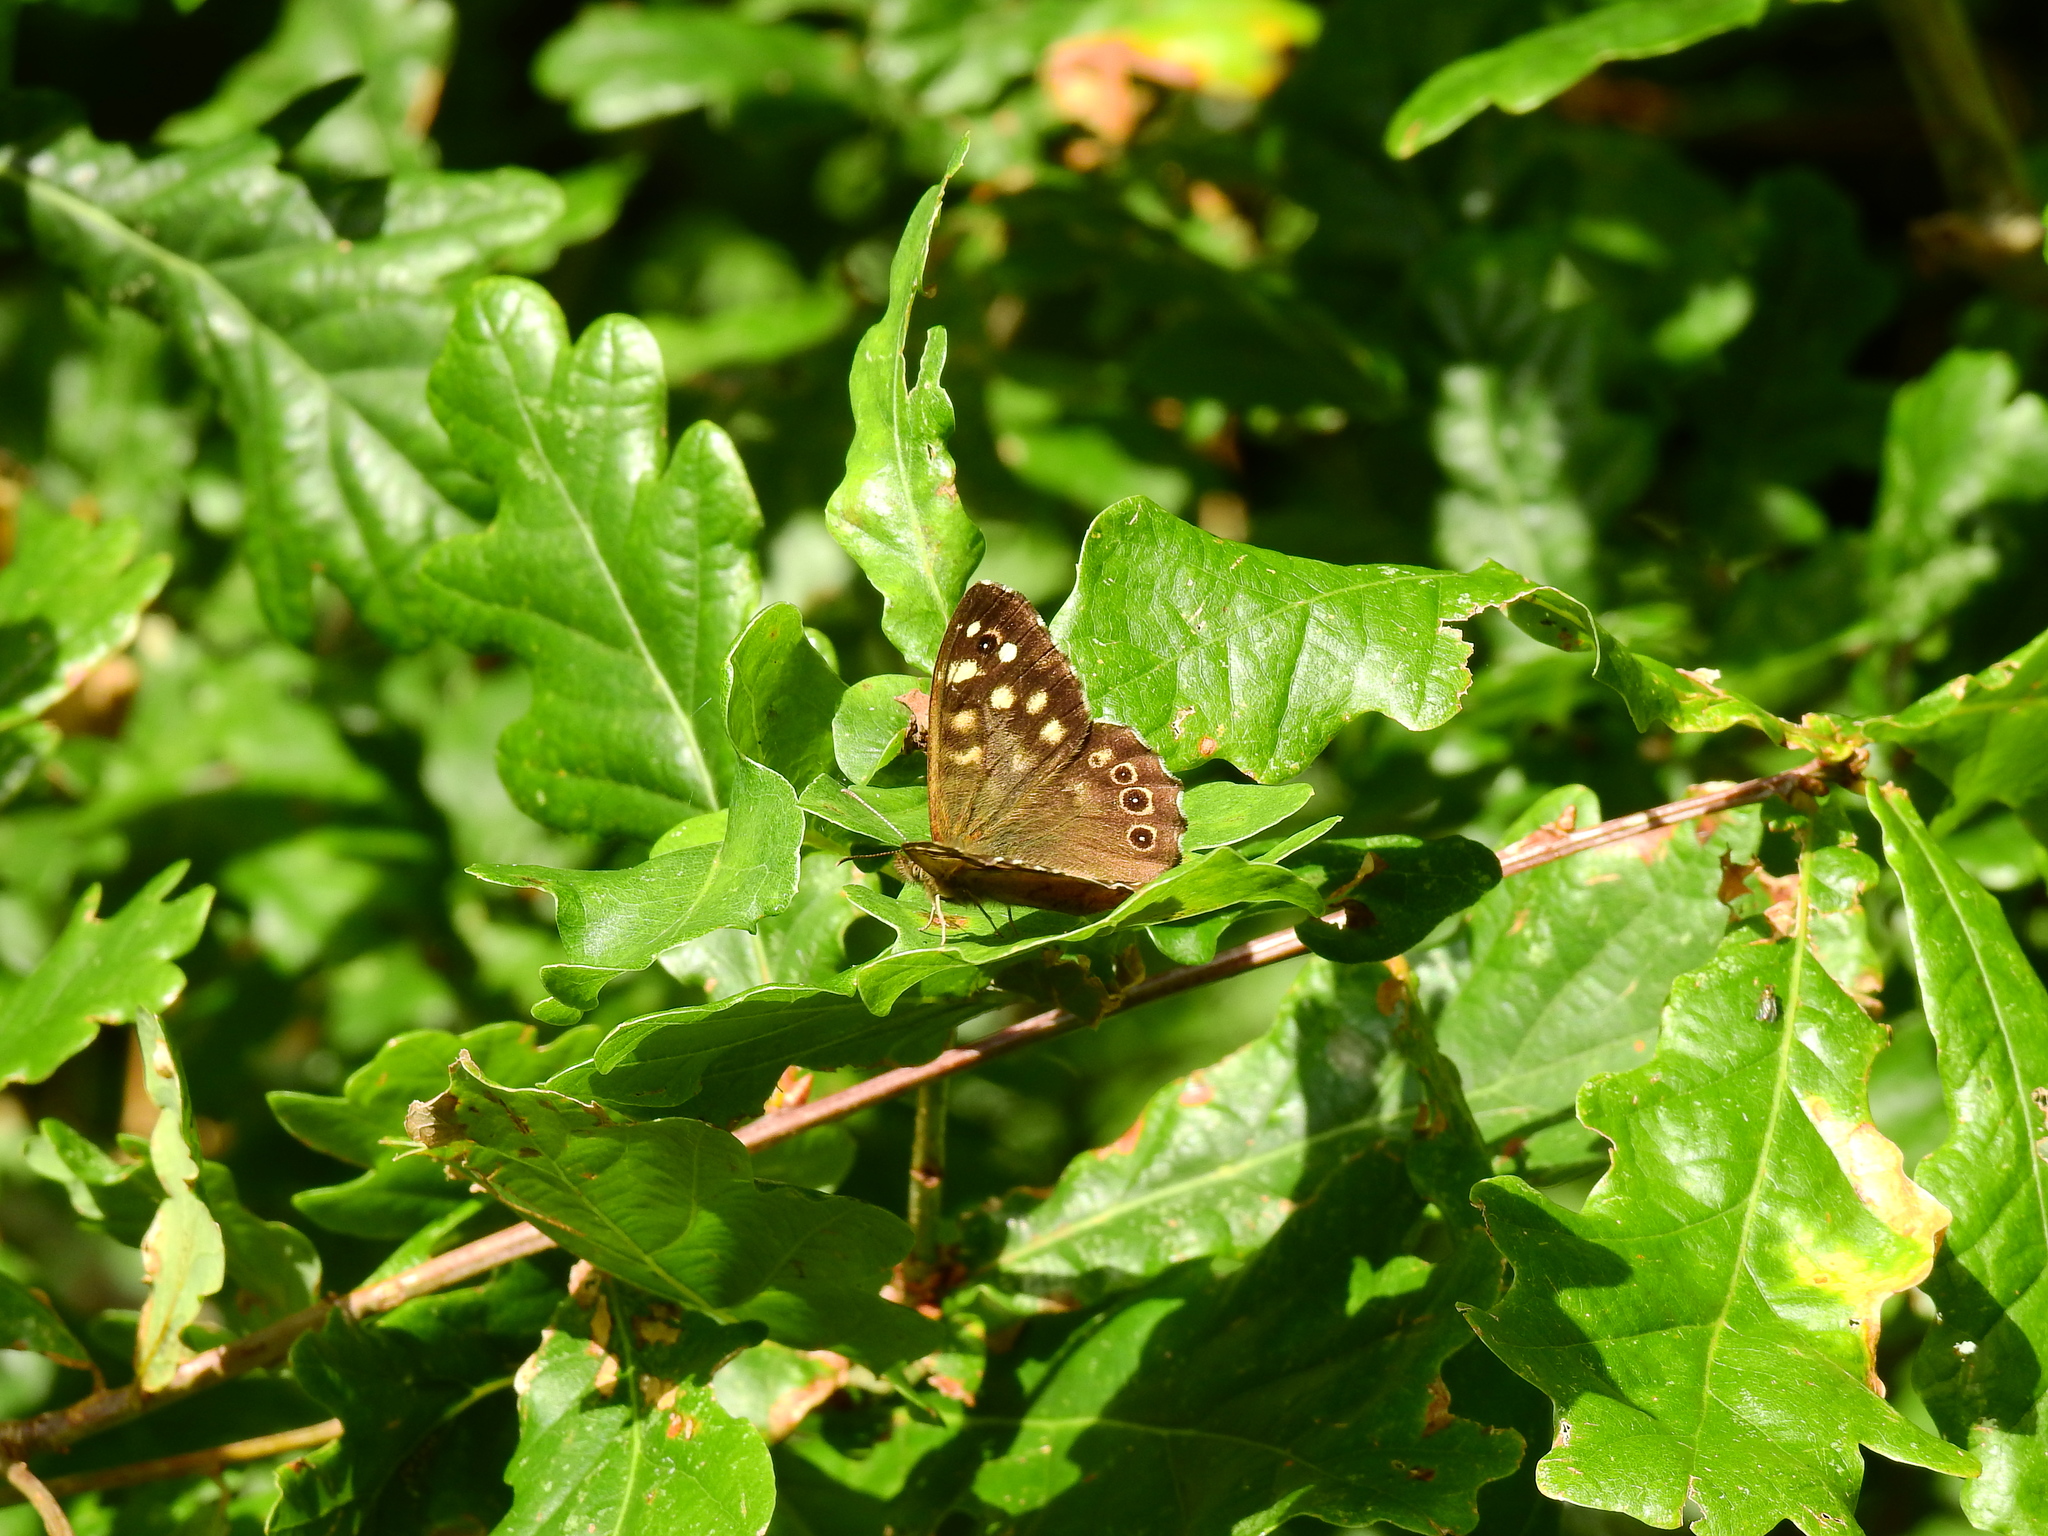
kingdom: Animalia
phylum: Arthropoda
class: Insecta
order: Lepidoptera
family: Nymphalidae
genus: Pararge
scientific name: Pararge aegeria
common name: Speckled wood
